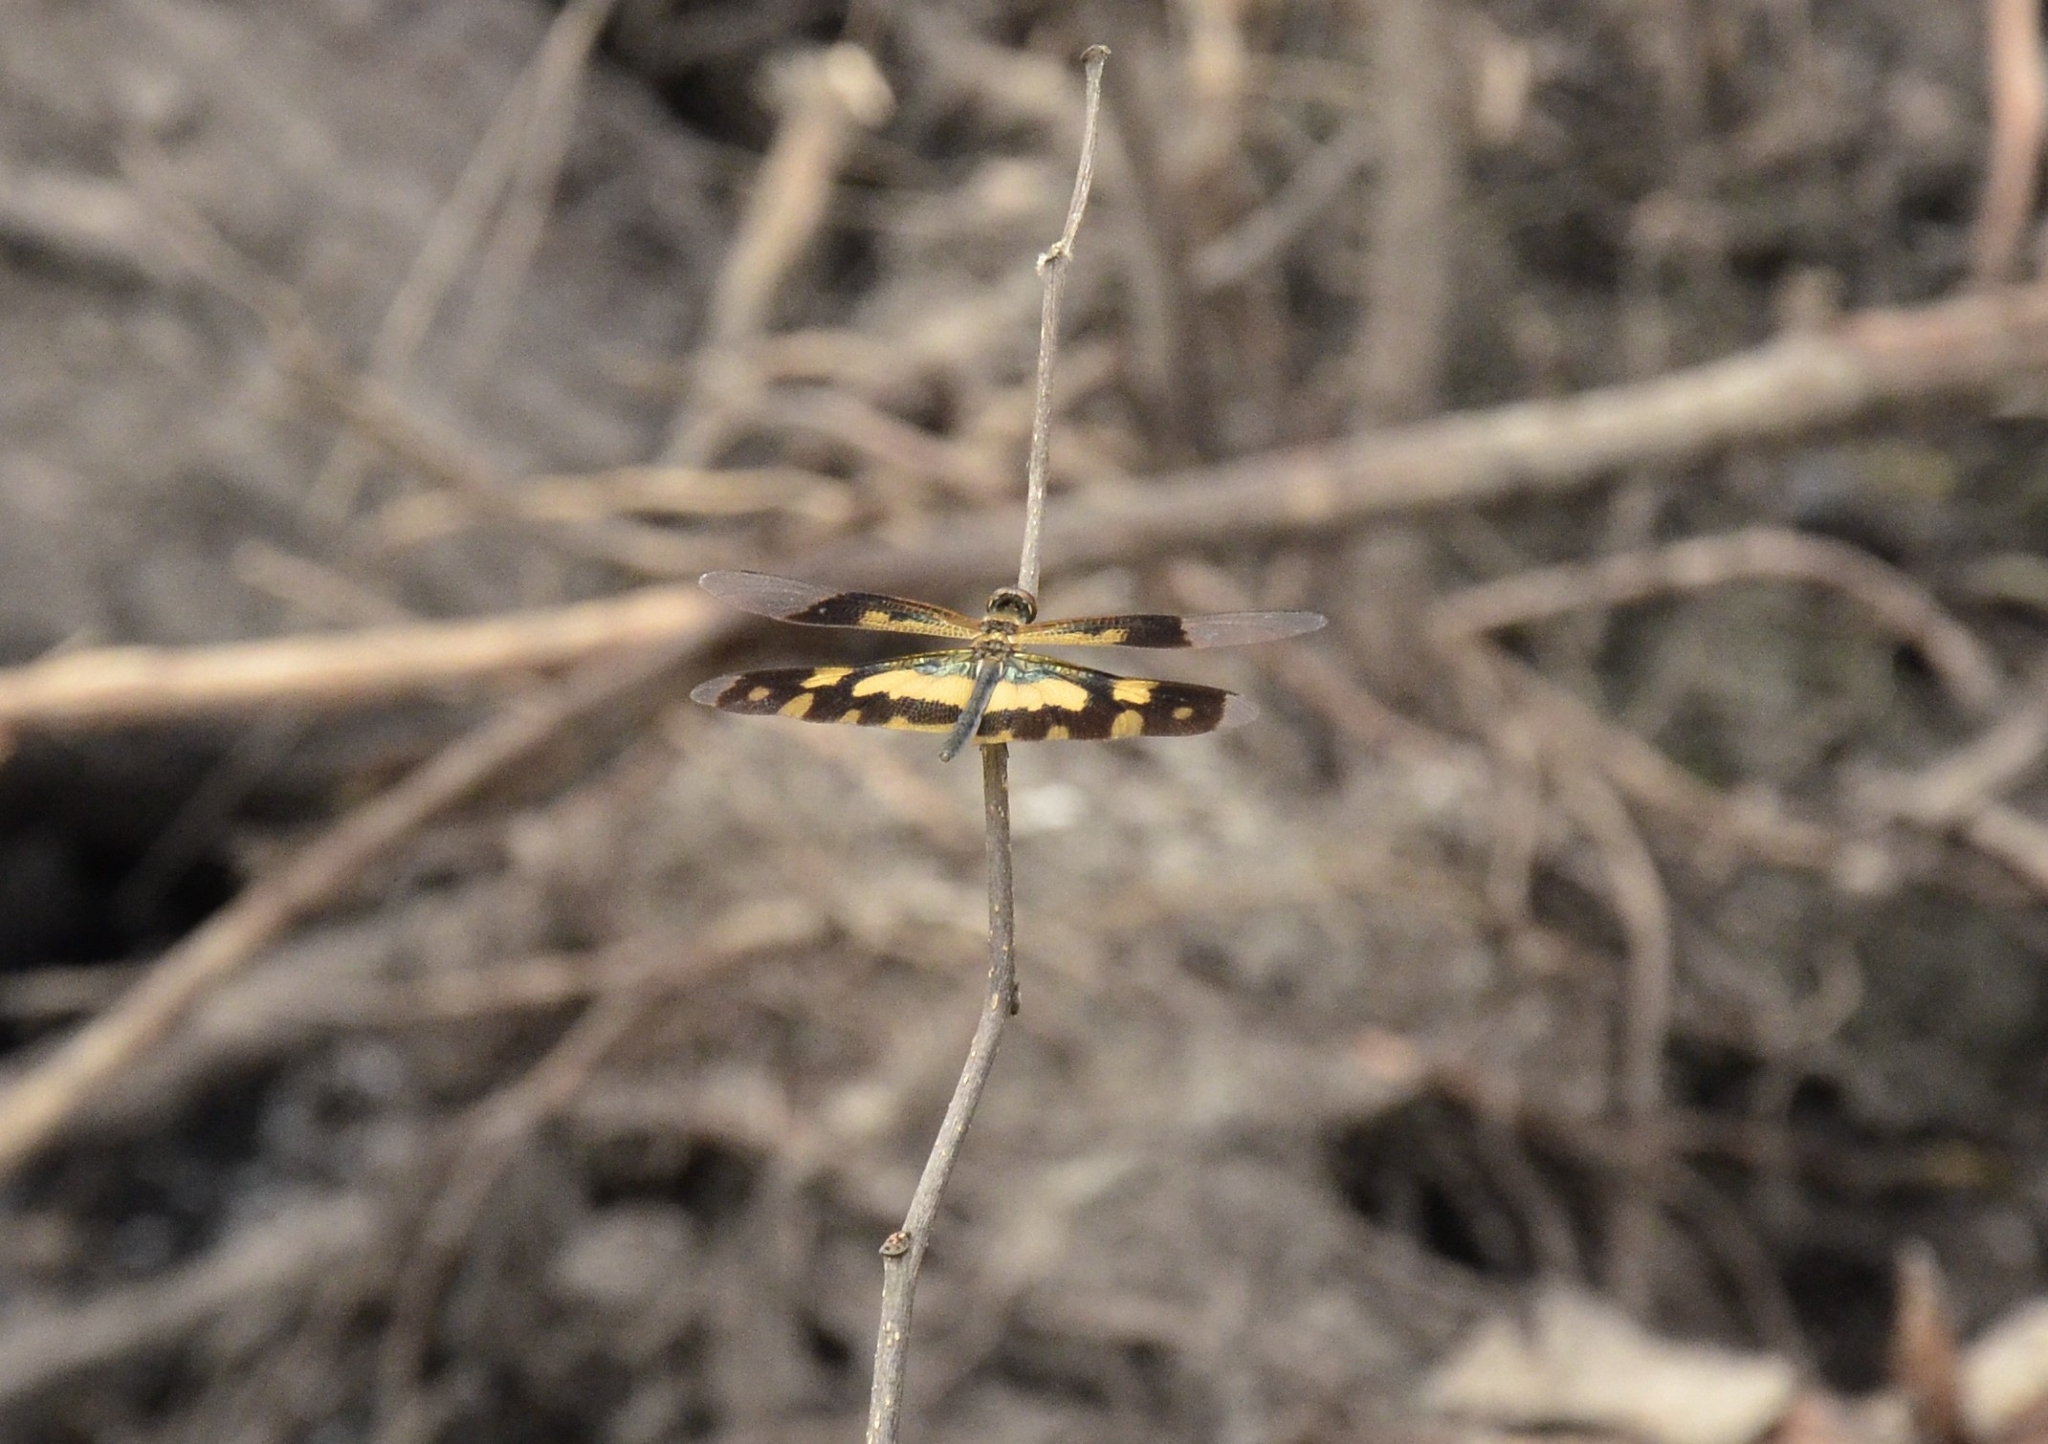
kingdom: Animalia
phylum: Arthropoda
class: Insecta
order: Odonata
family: Libellulidae
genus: Rhyothemis
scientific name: Rhyothemis variegata
